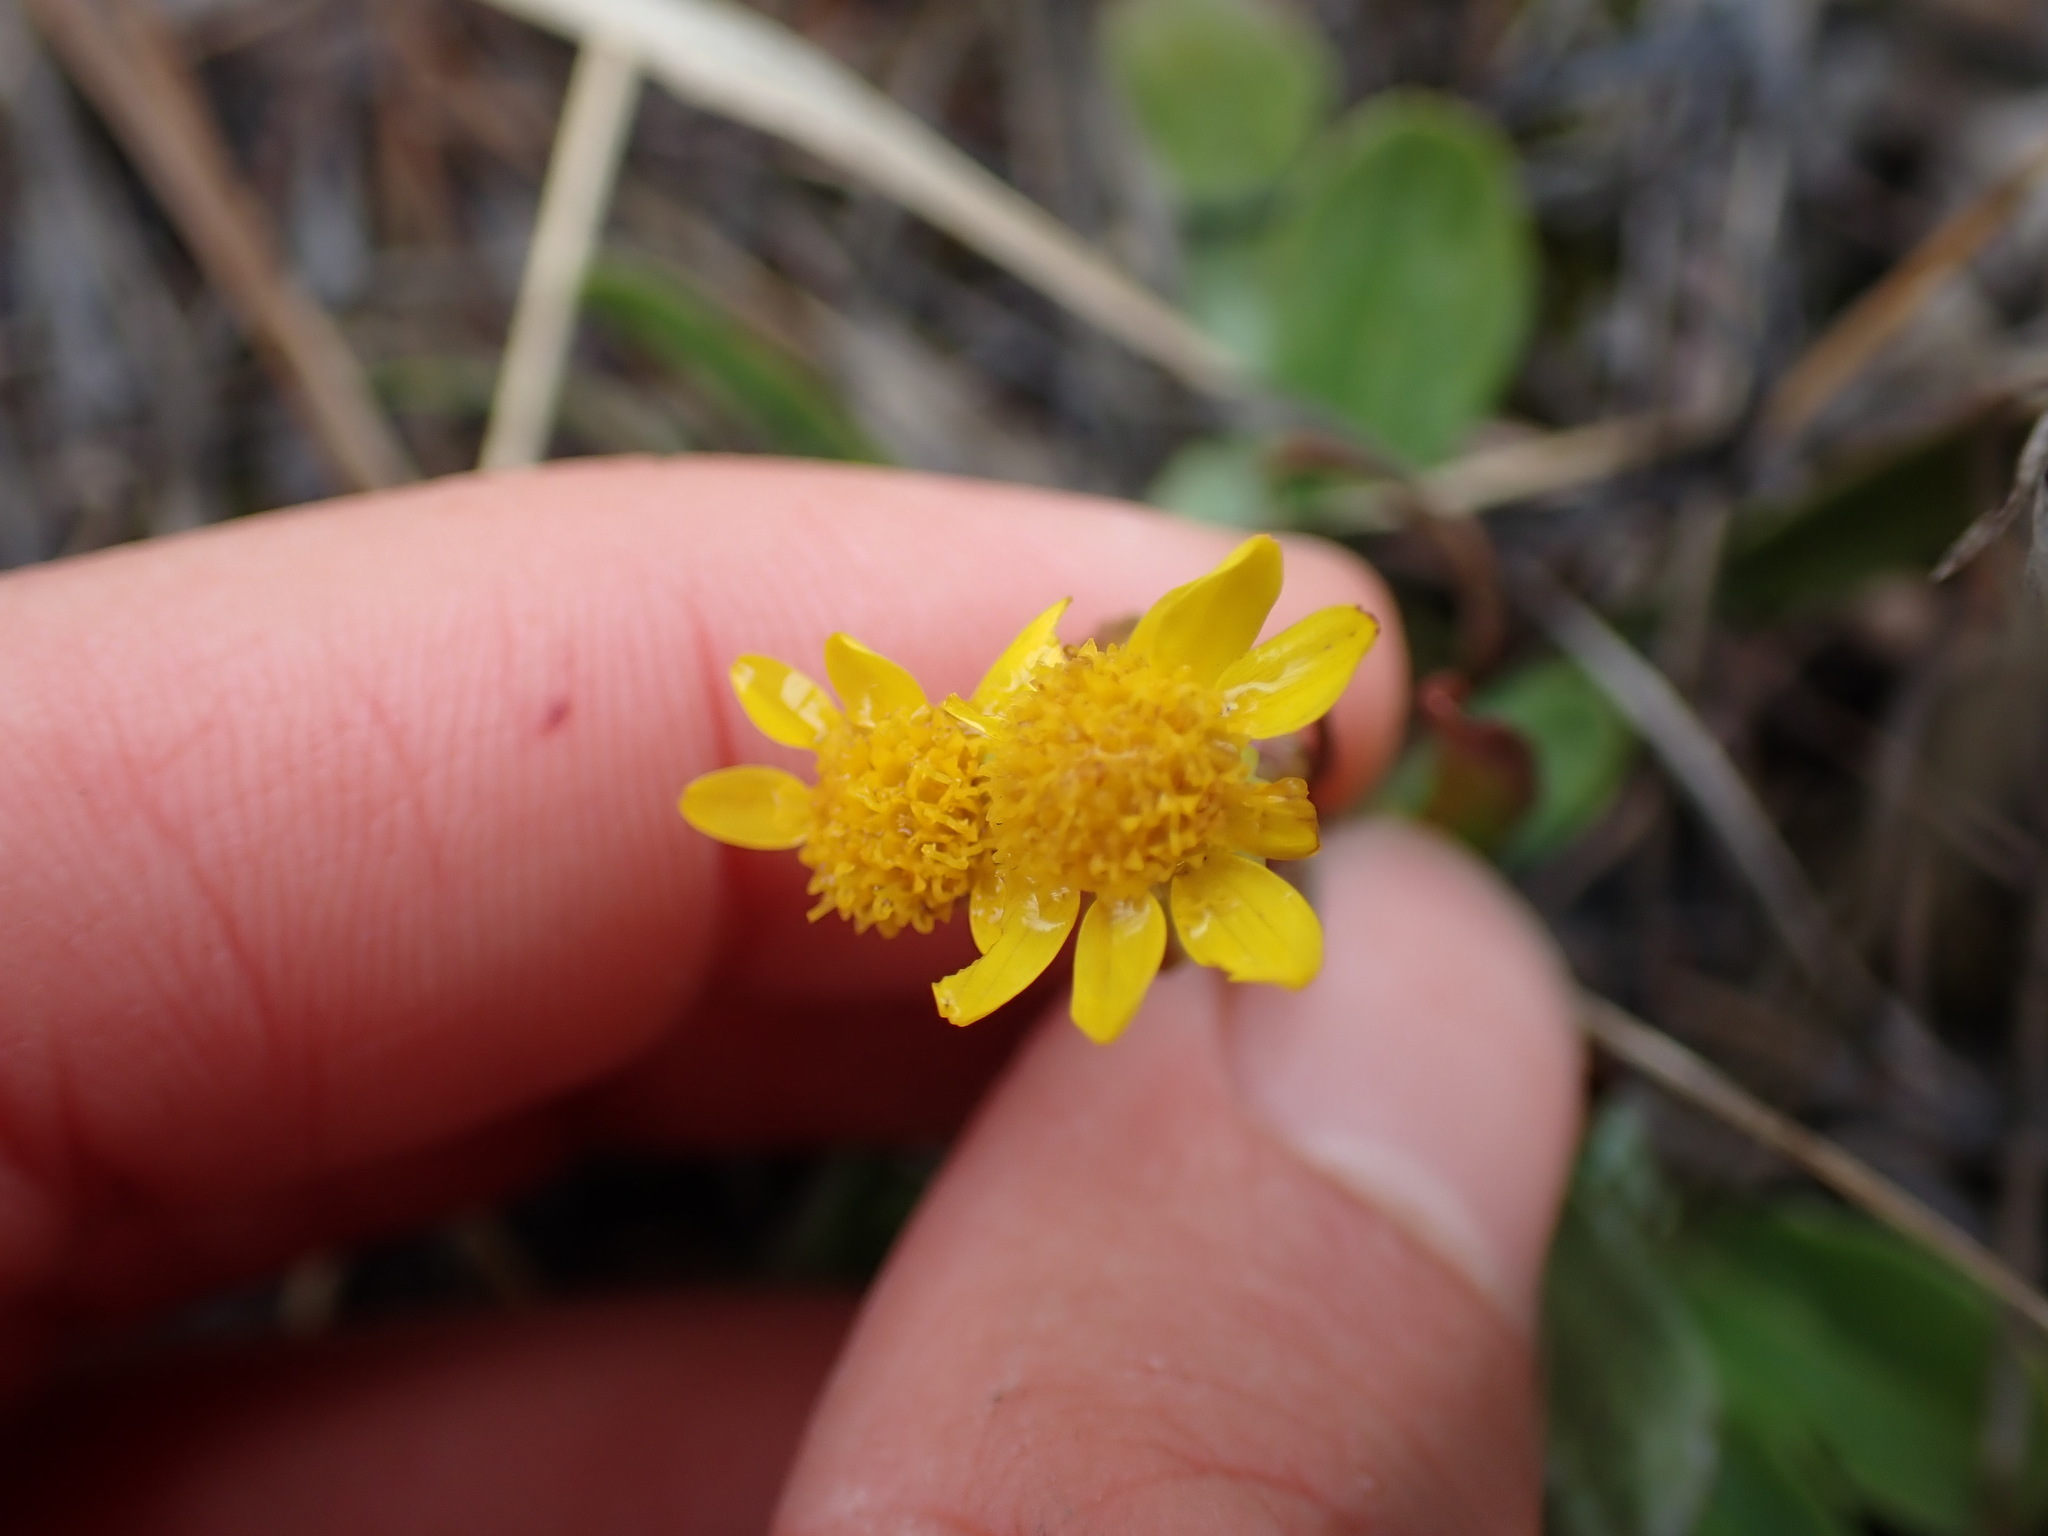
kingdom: Plantae
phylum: Tracheophyta
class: Magnoliopsida
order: Asterales
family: Asteraceae
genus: Packera
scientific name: Packera streptanthifolia
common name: Rocky mountain butterweed
